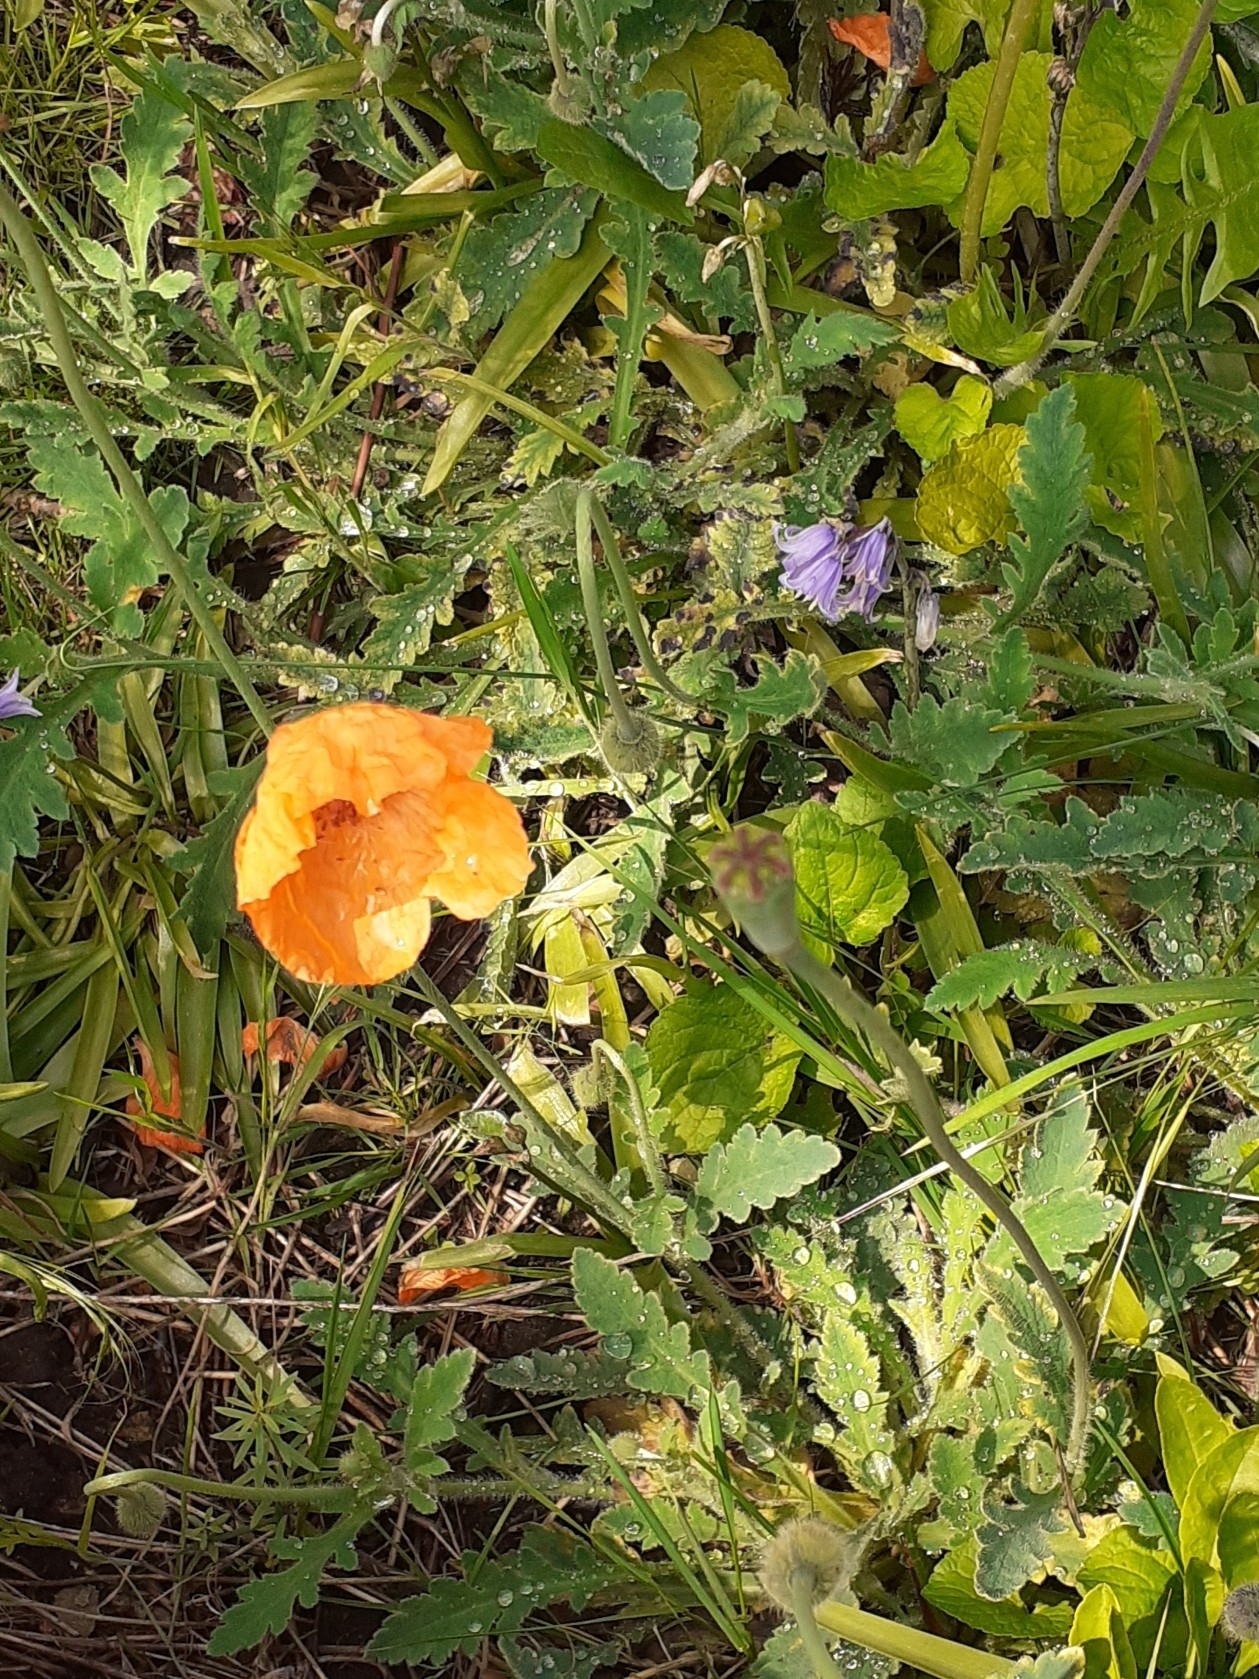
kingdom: Plantae
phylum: Tracheophyta
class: Magnoliopsida
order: Ranunculales
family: Papaveraceae
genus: Papaver
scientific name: Papaver atlanticum
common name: Atlas poppy
